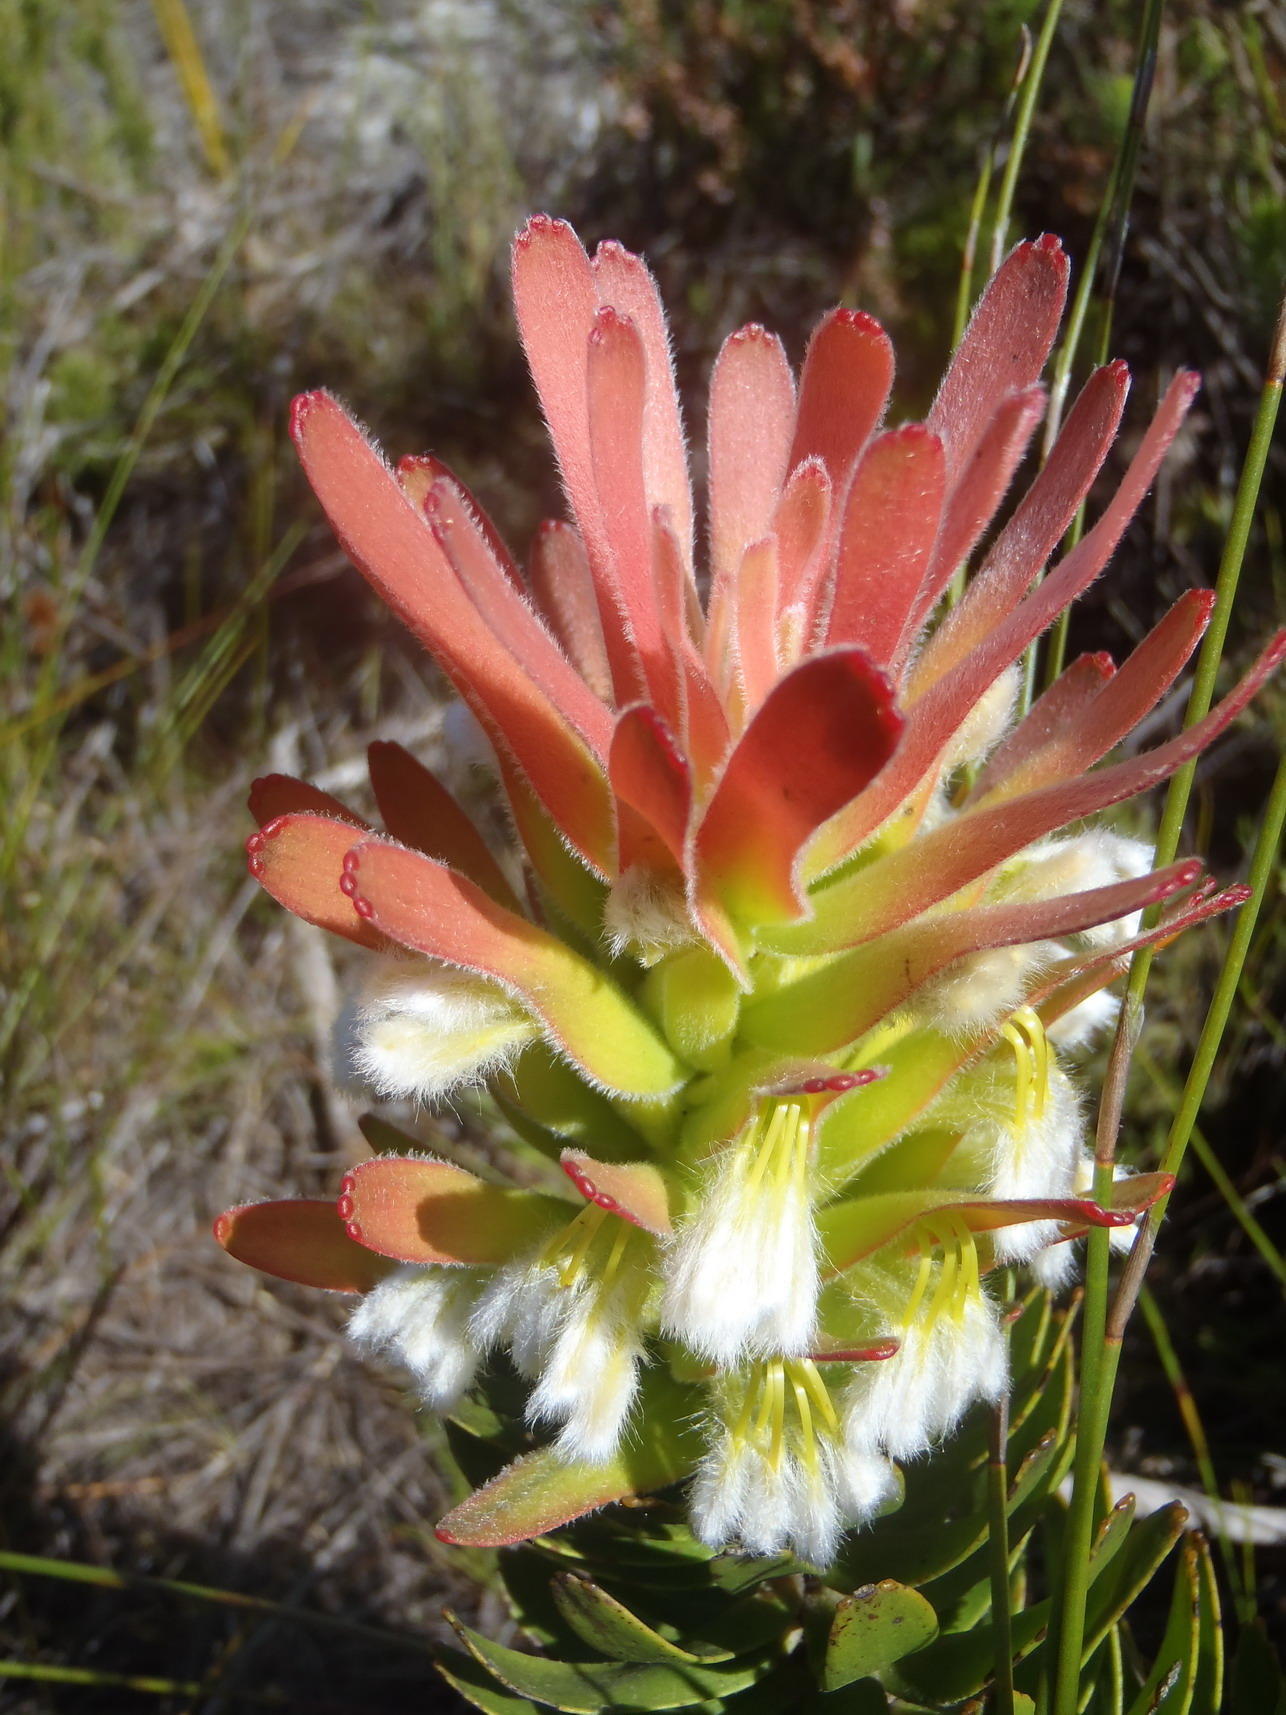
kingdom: Plantae
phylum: Tracheophyta
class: Magnoliopsida
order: Proteales
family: Proteaceae
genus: Mimetes
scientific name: Mimetes cucullatus
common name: Common pagoda
